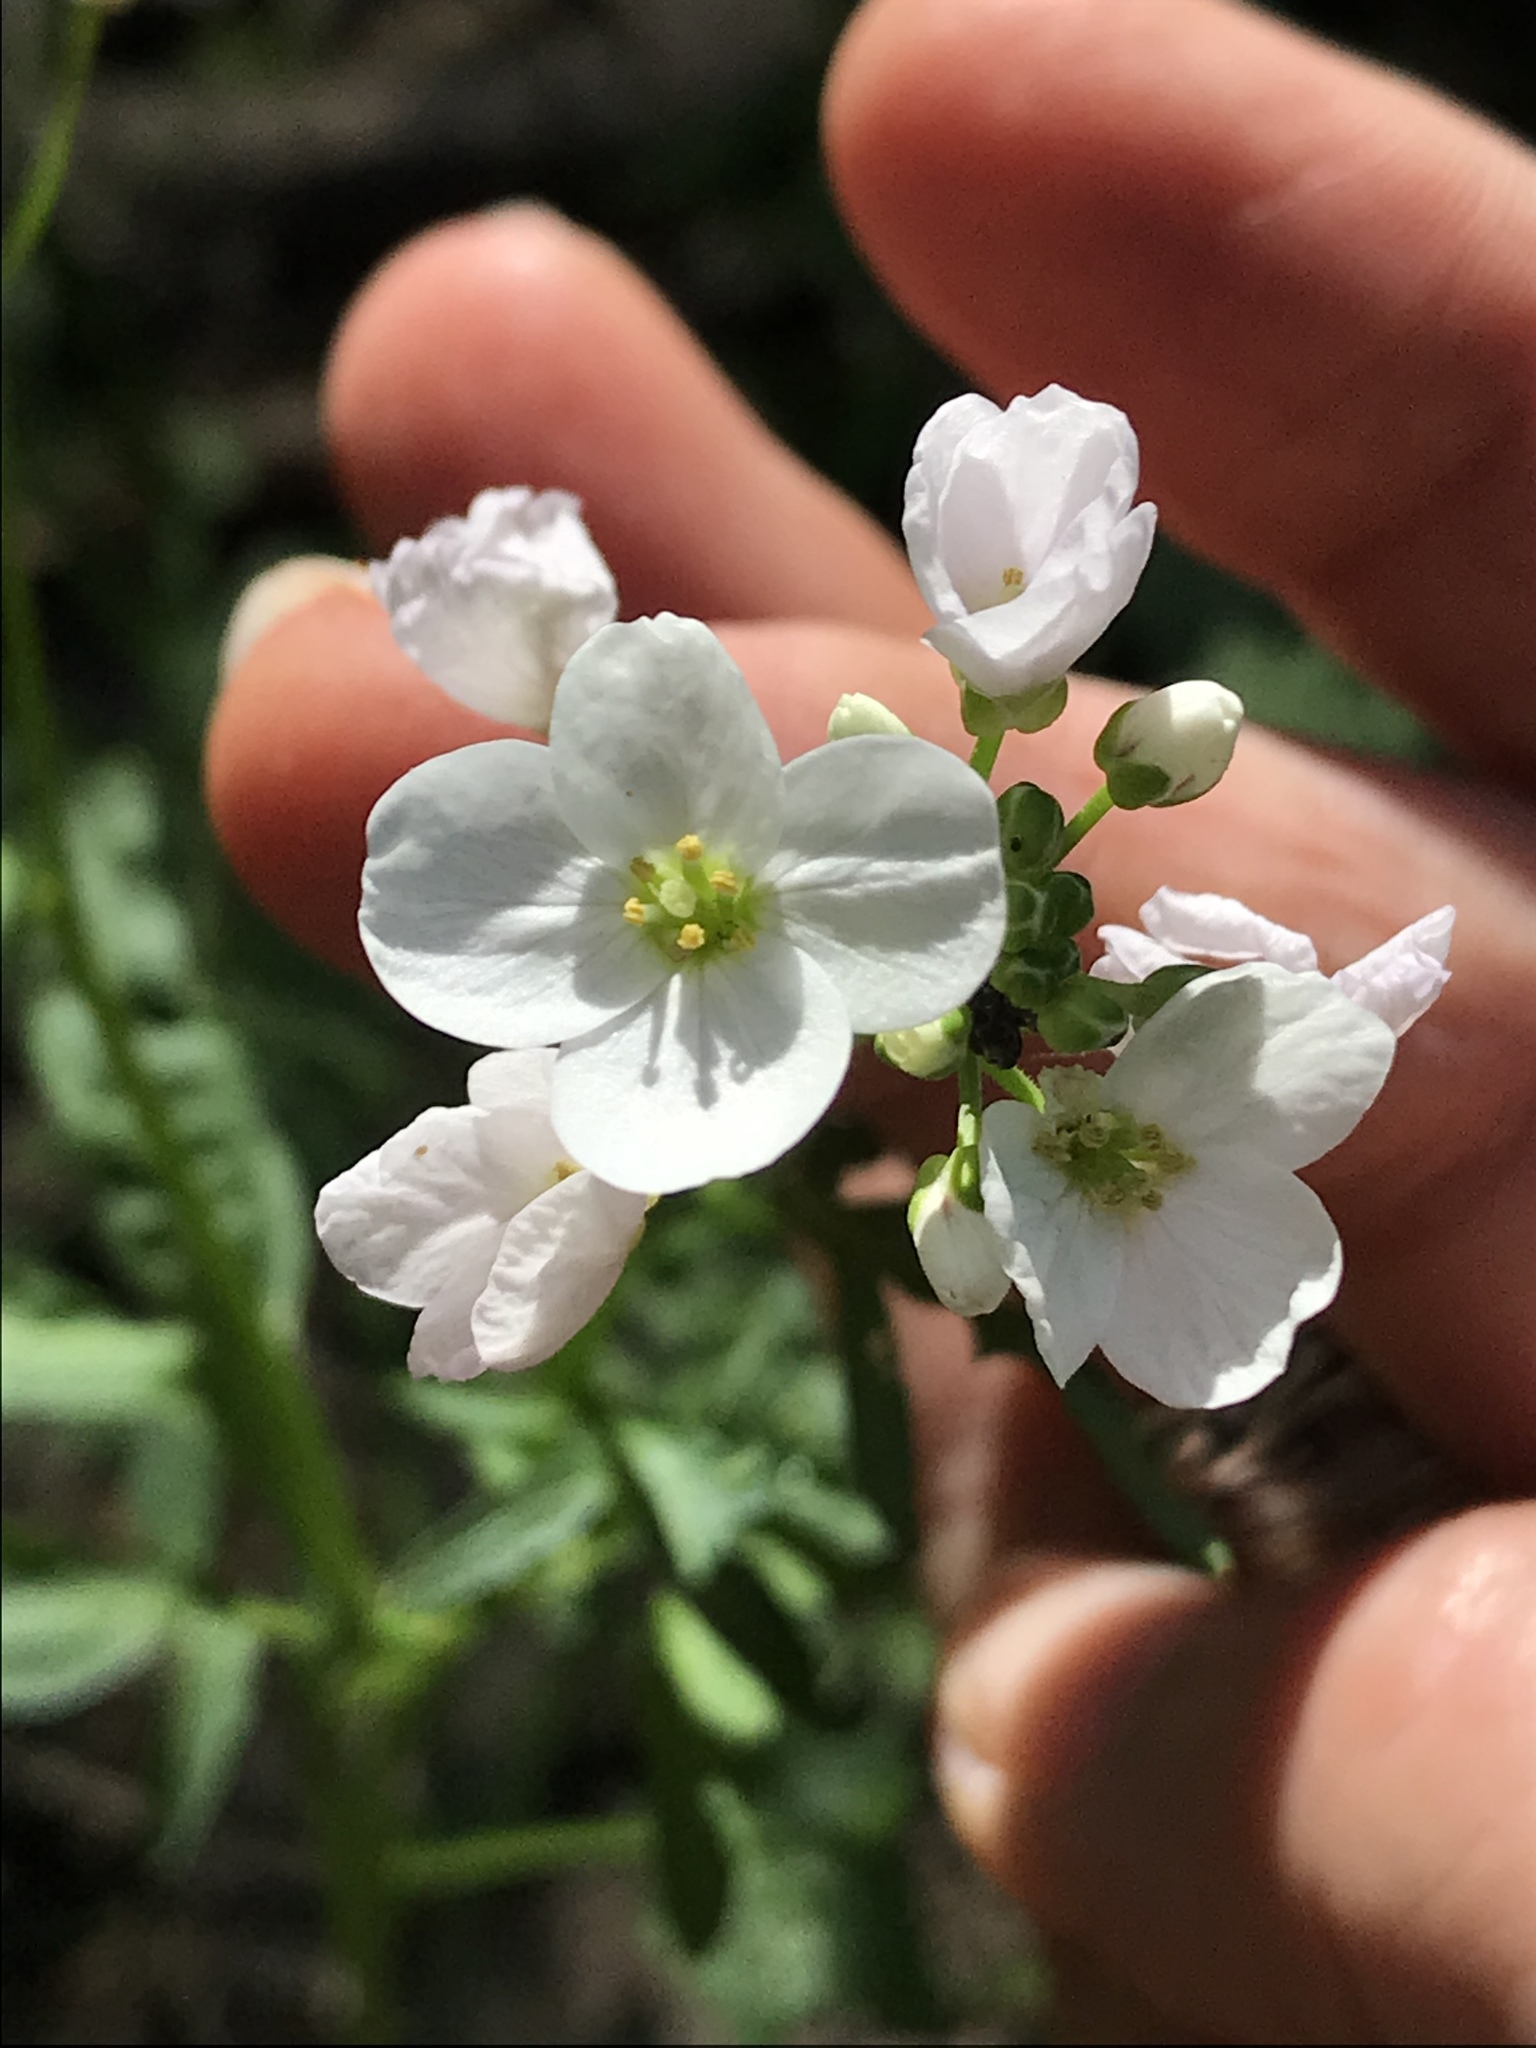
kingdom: Plantae
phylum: Tracheophyta
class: Magnoliopsida
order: Brassicales
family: Brassicaceae
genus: Cardamine
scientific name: Cardamine californica
